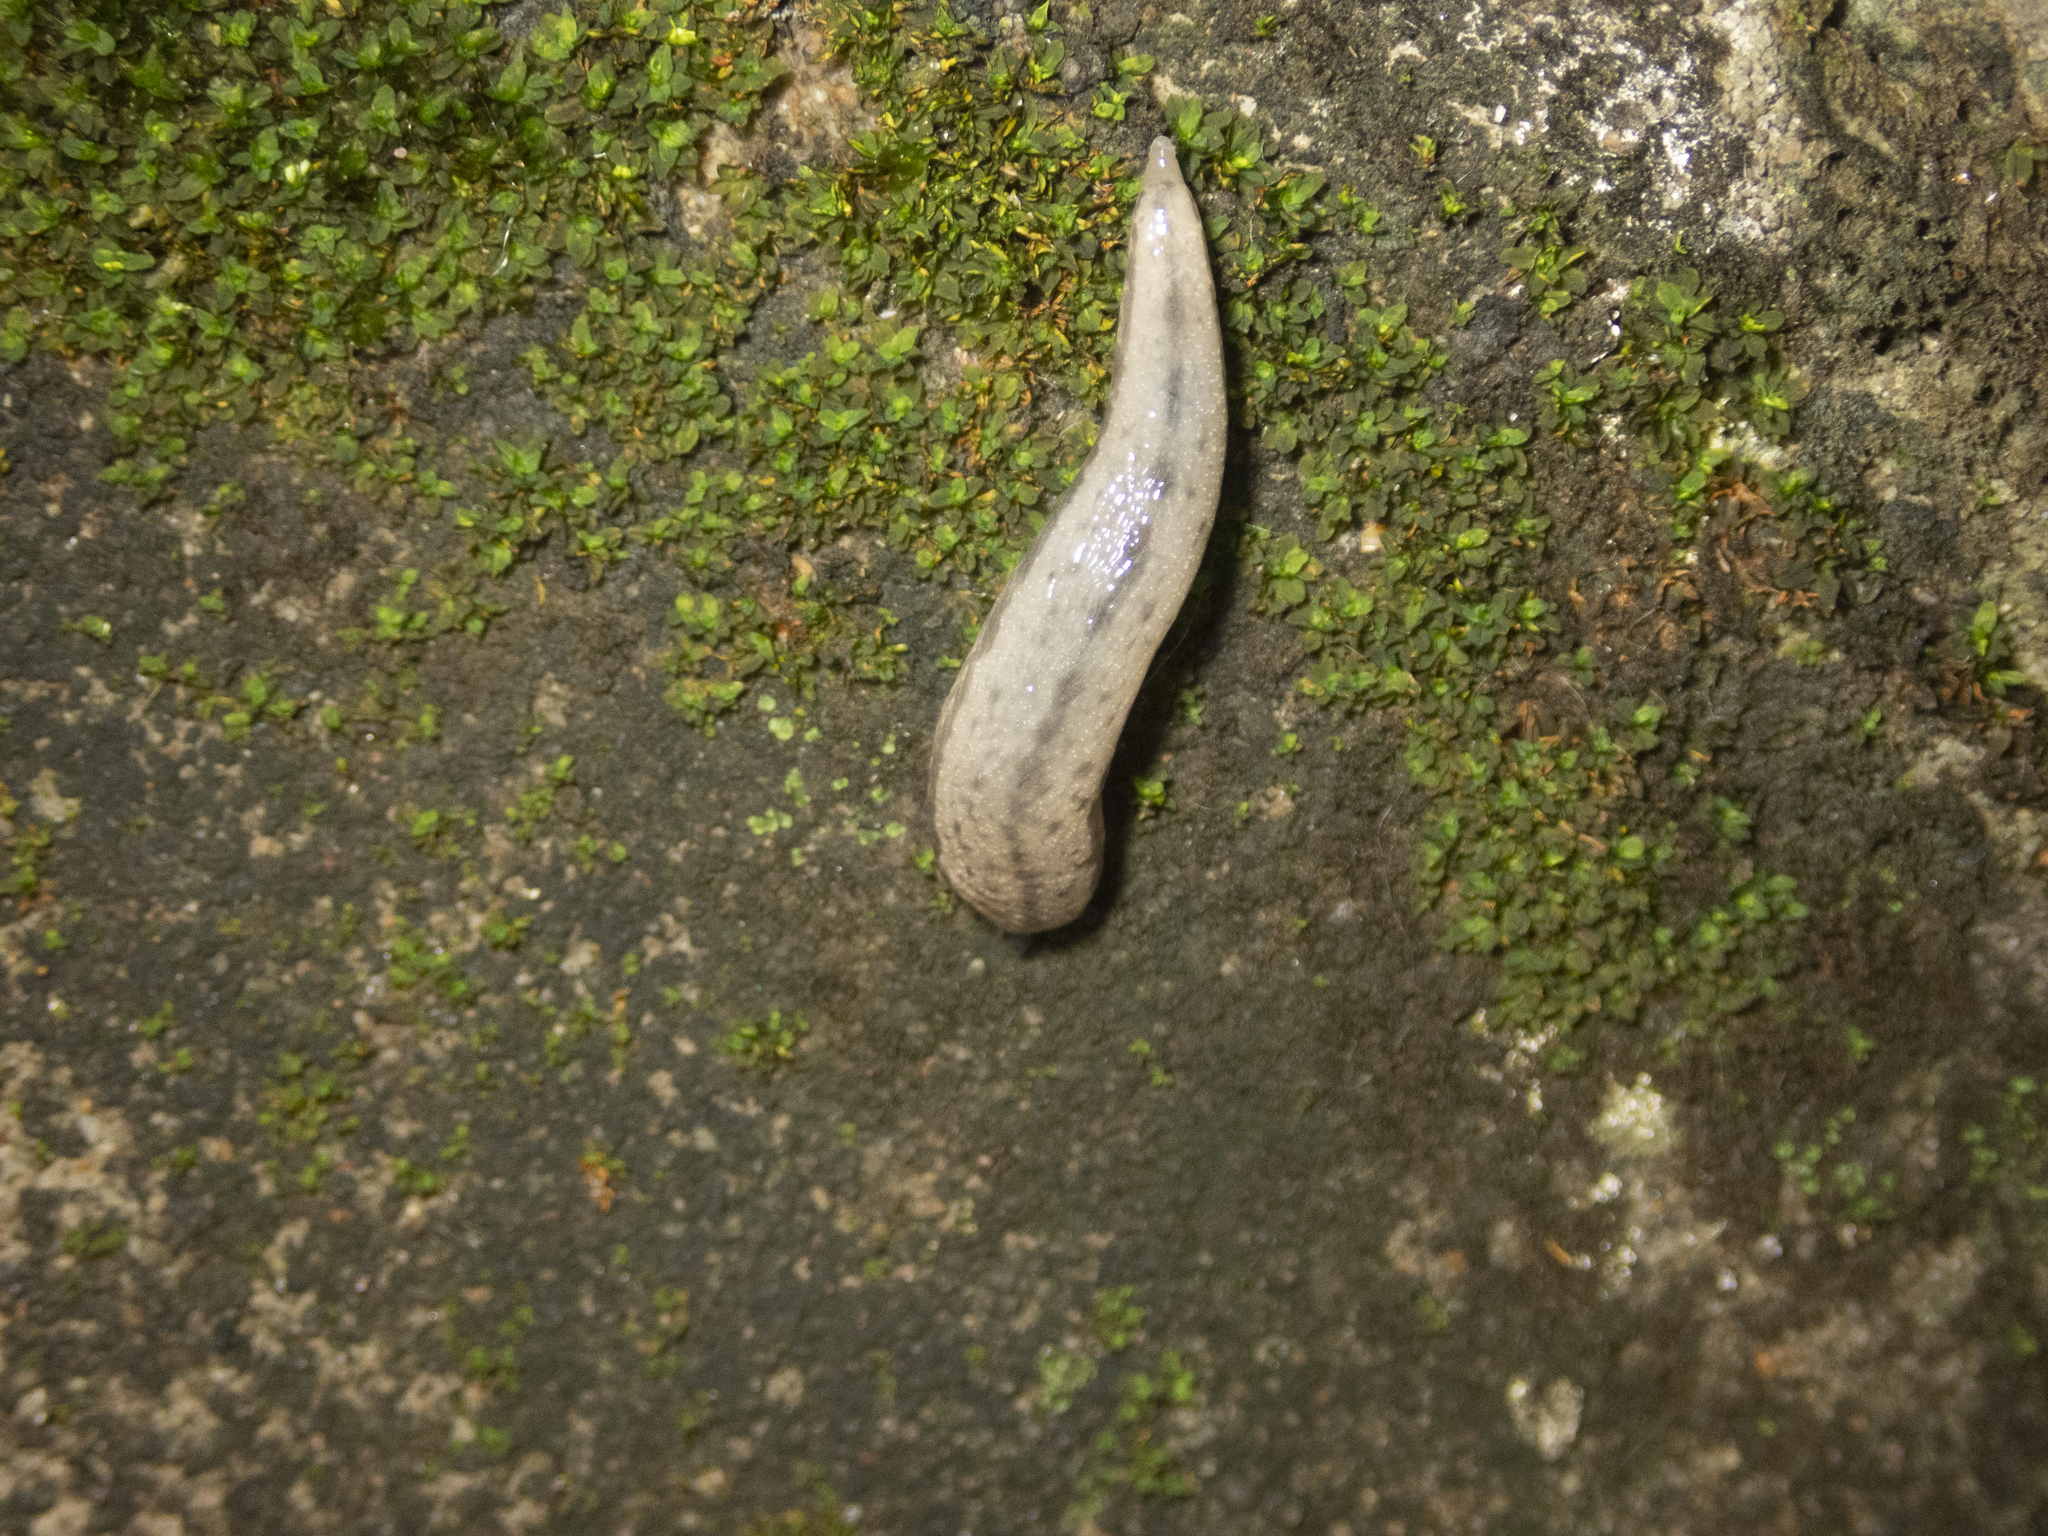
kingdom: Animalia
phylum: Mollusca
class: Gastropoda
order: Stylommatophora
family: Philomycidae
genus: Meghimatium
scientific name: Meghimatium bilineatum
